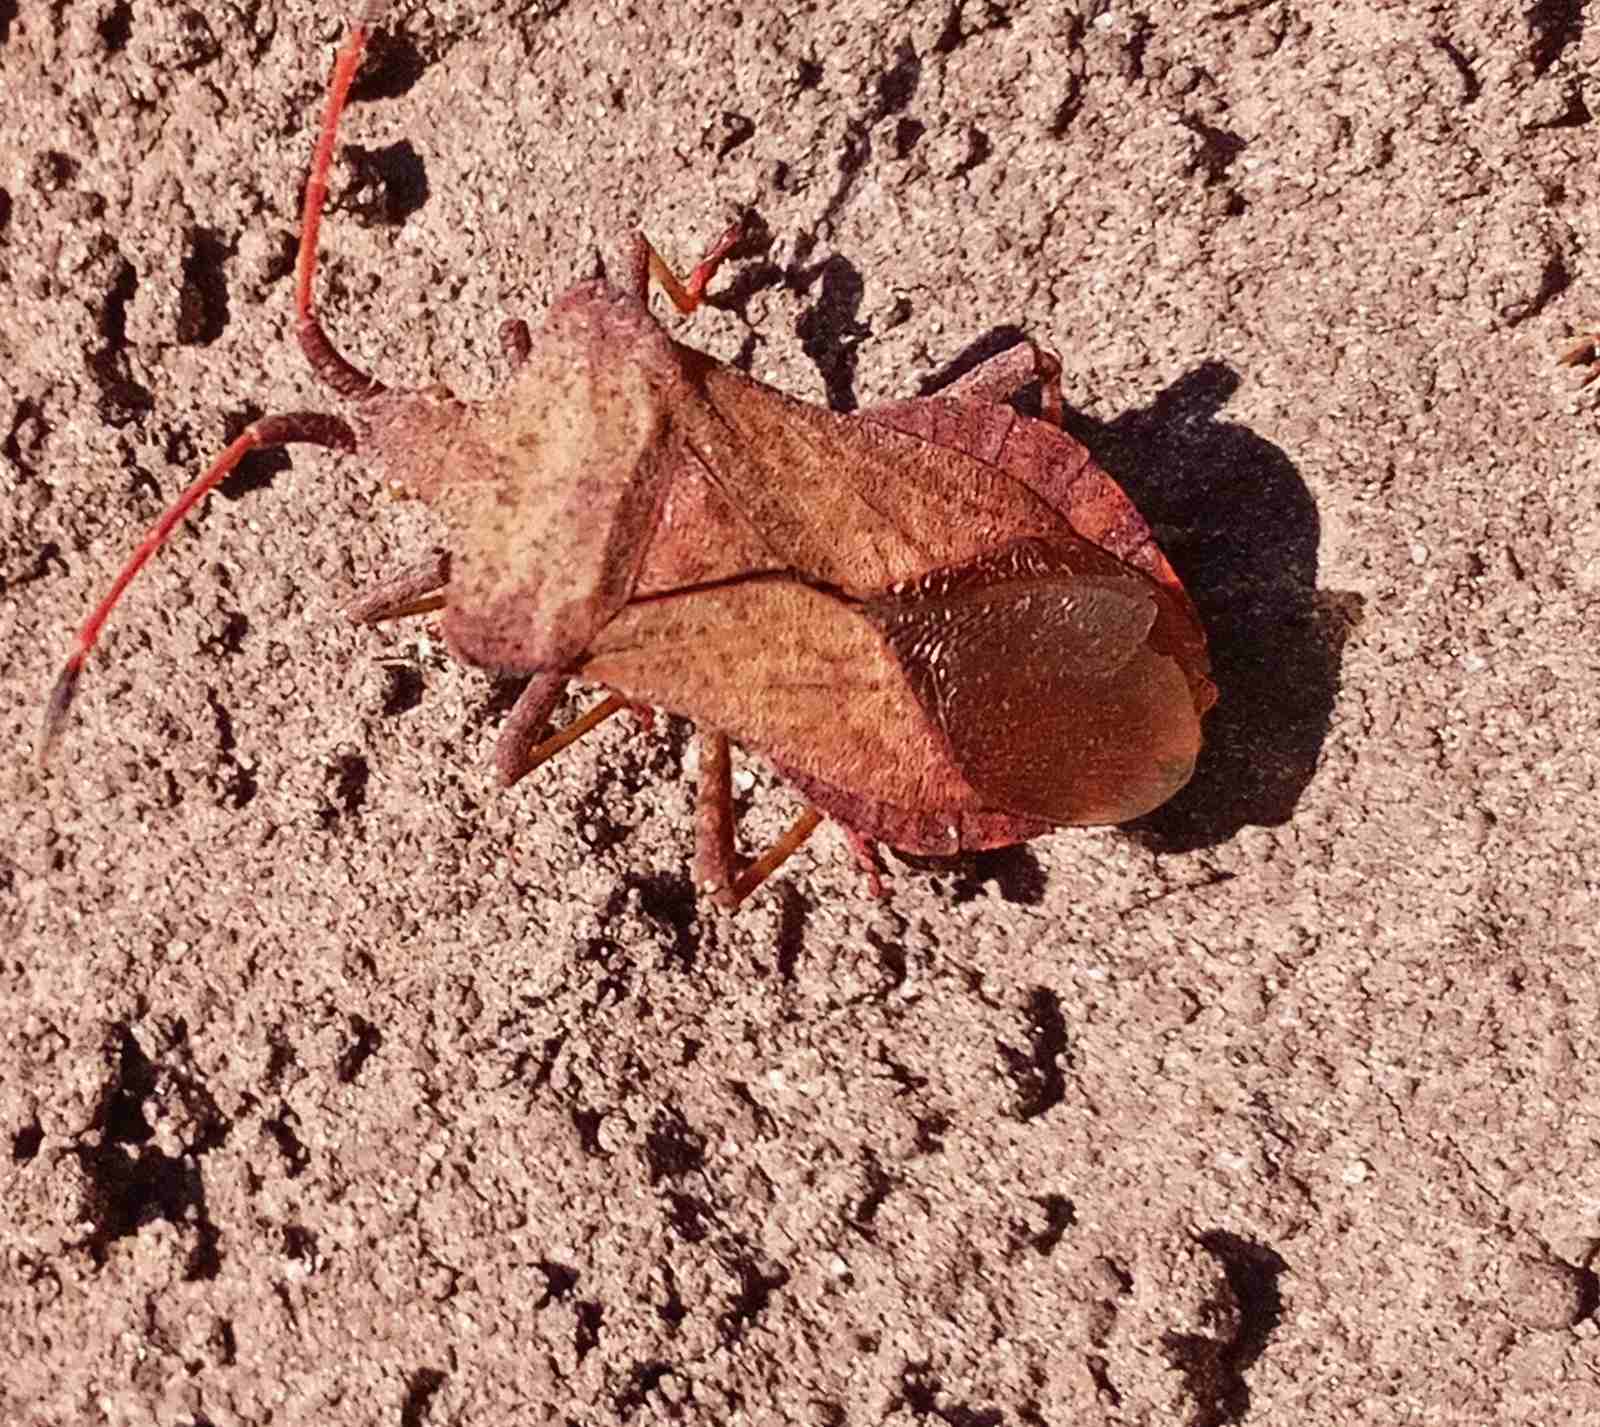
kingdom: Animalia
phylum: Arthropoda
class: Insecta
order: Hemiptera
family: Coreidae
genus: Coreus
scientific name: Coreus marginatus
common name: Dock bug
